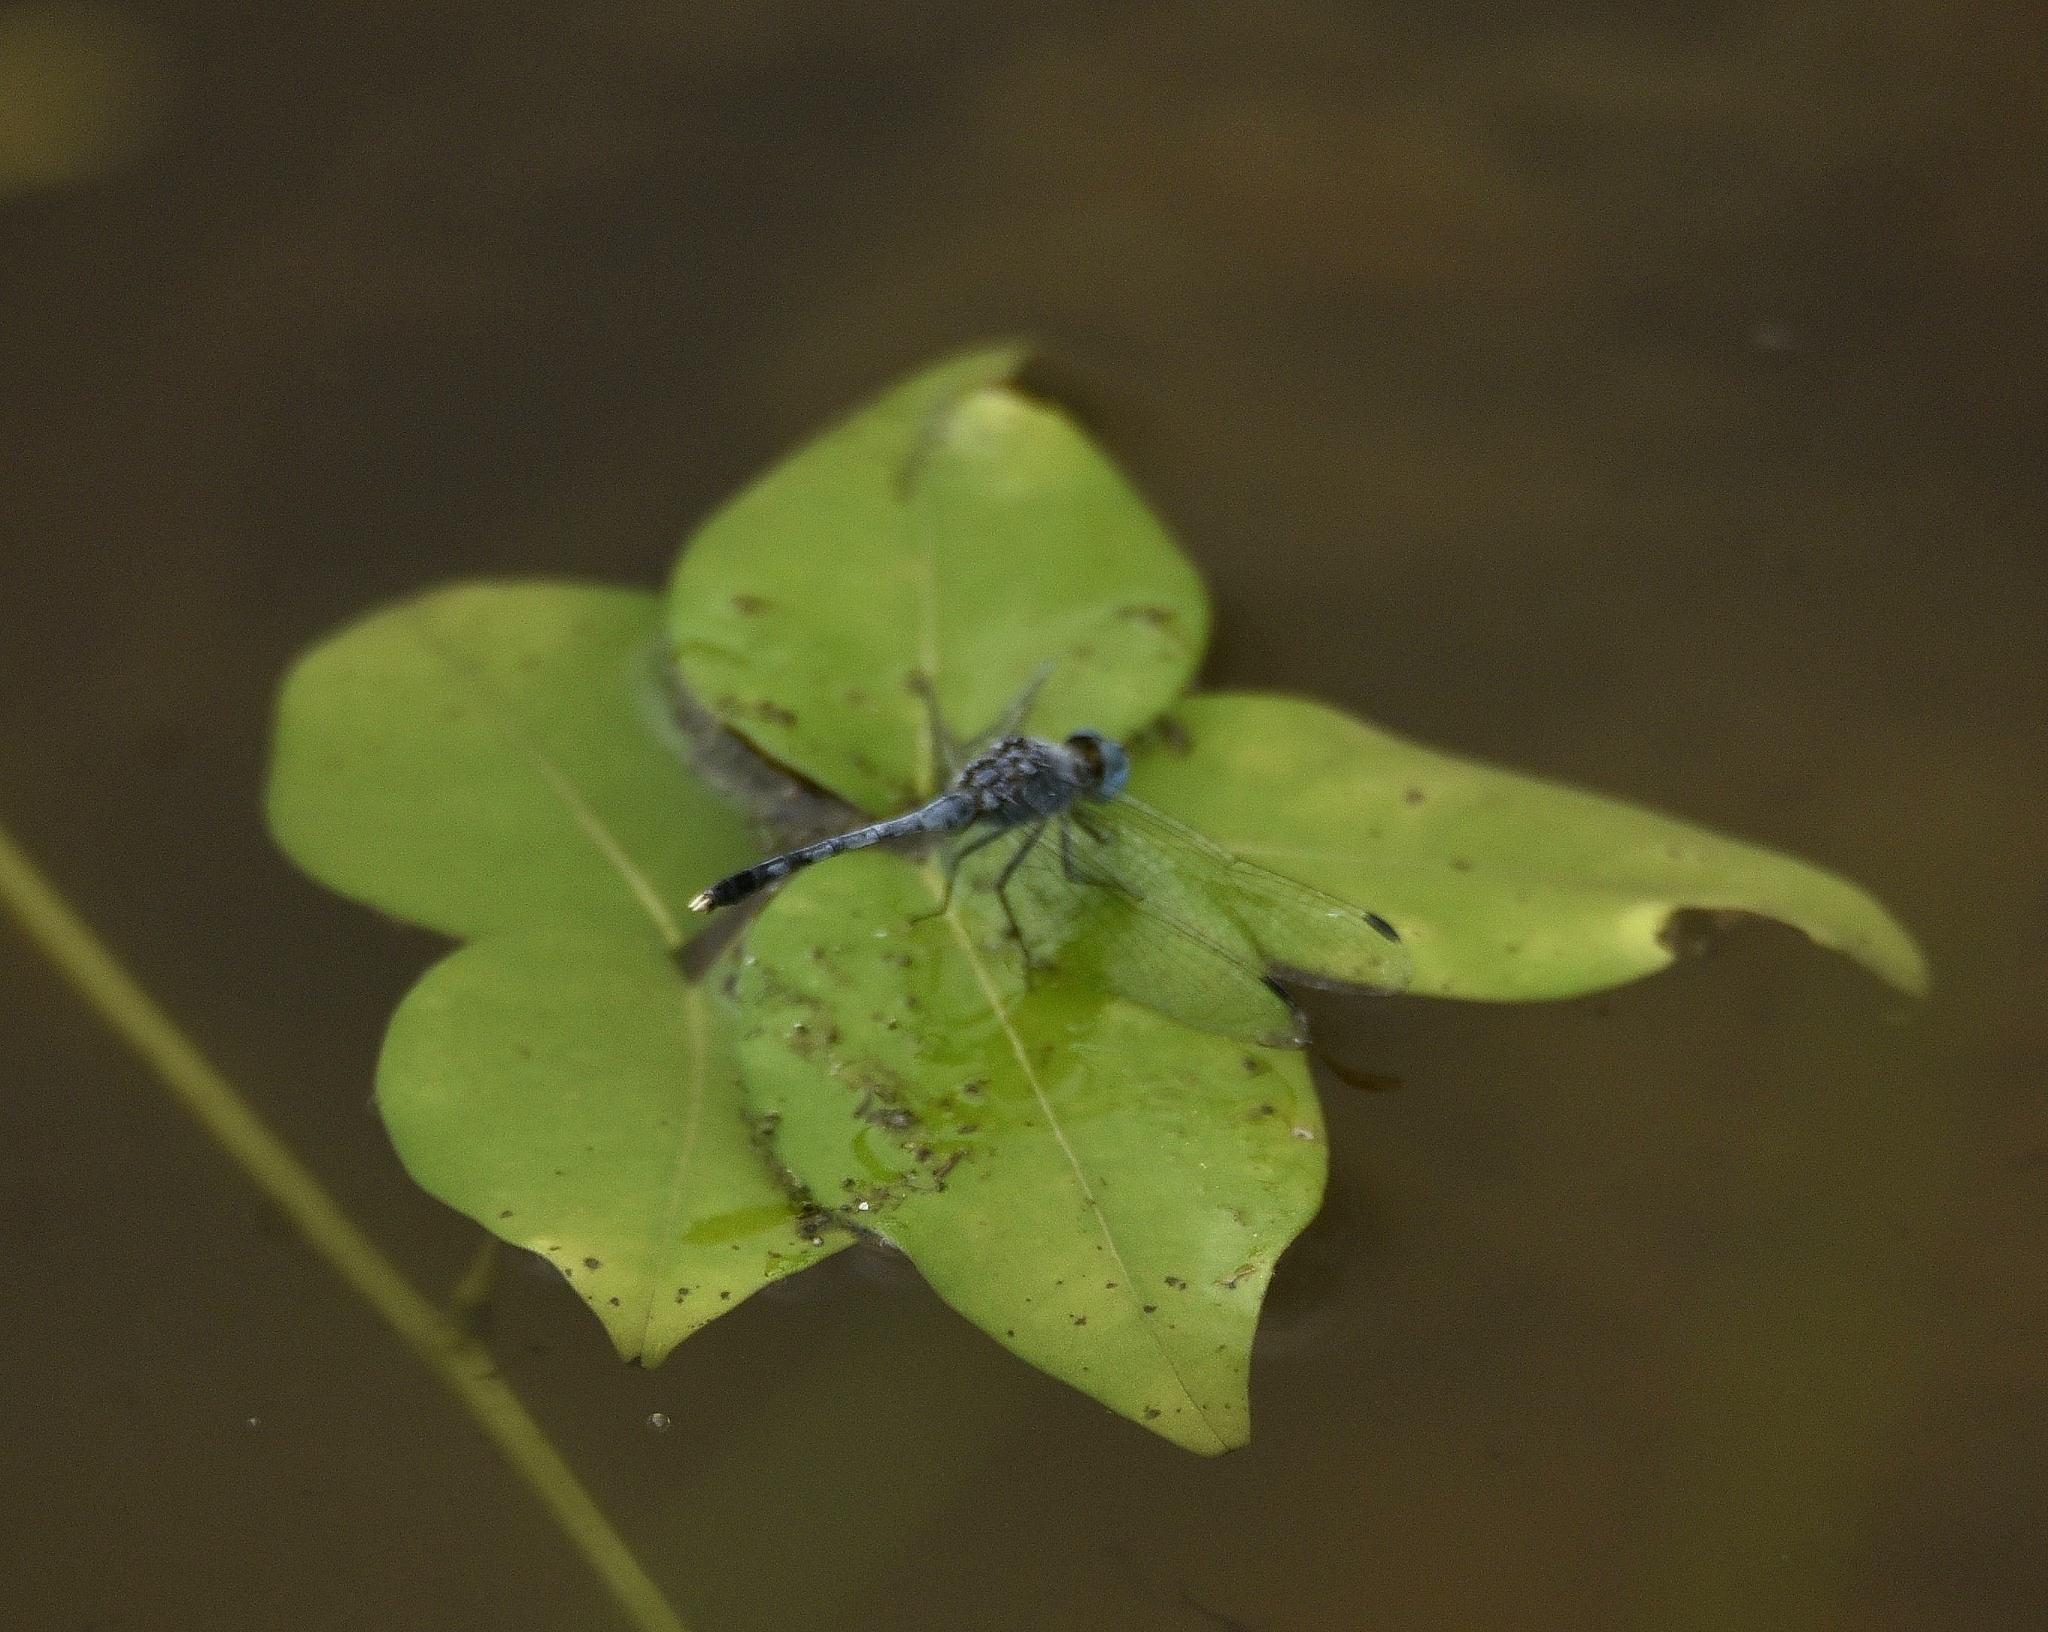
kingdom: Animalia
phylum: Arthropoda
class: Insecta
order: Odonata
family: Libellulidae
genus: Diplacodes
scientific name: Diplacodes trivialis
